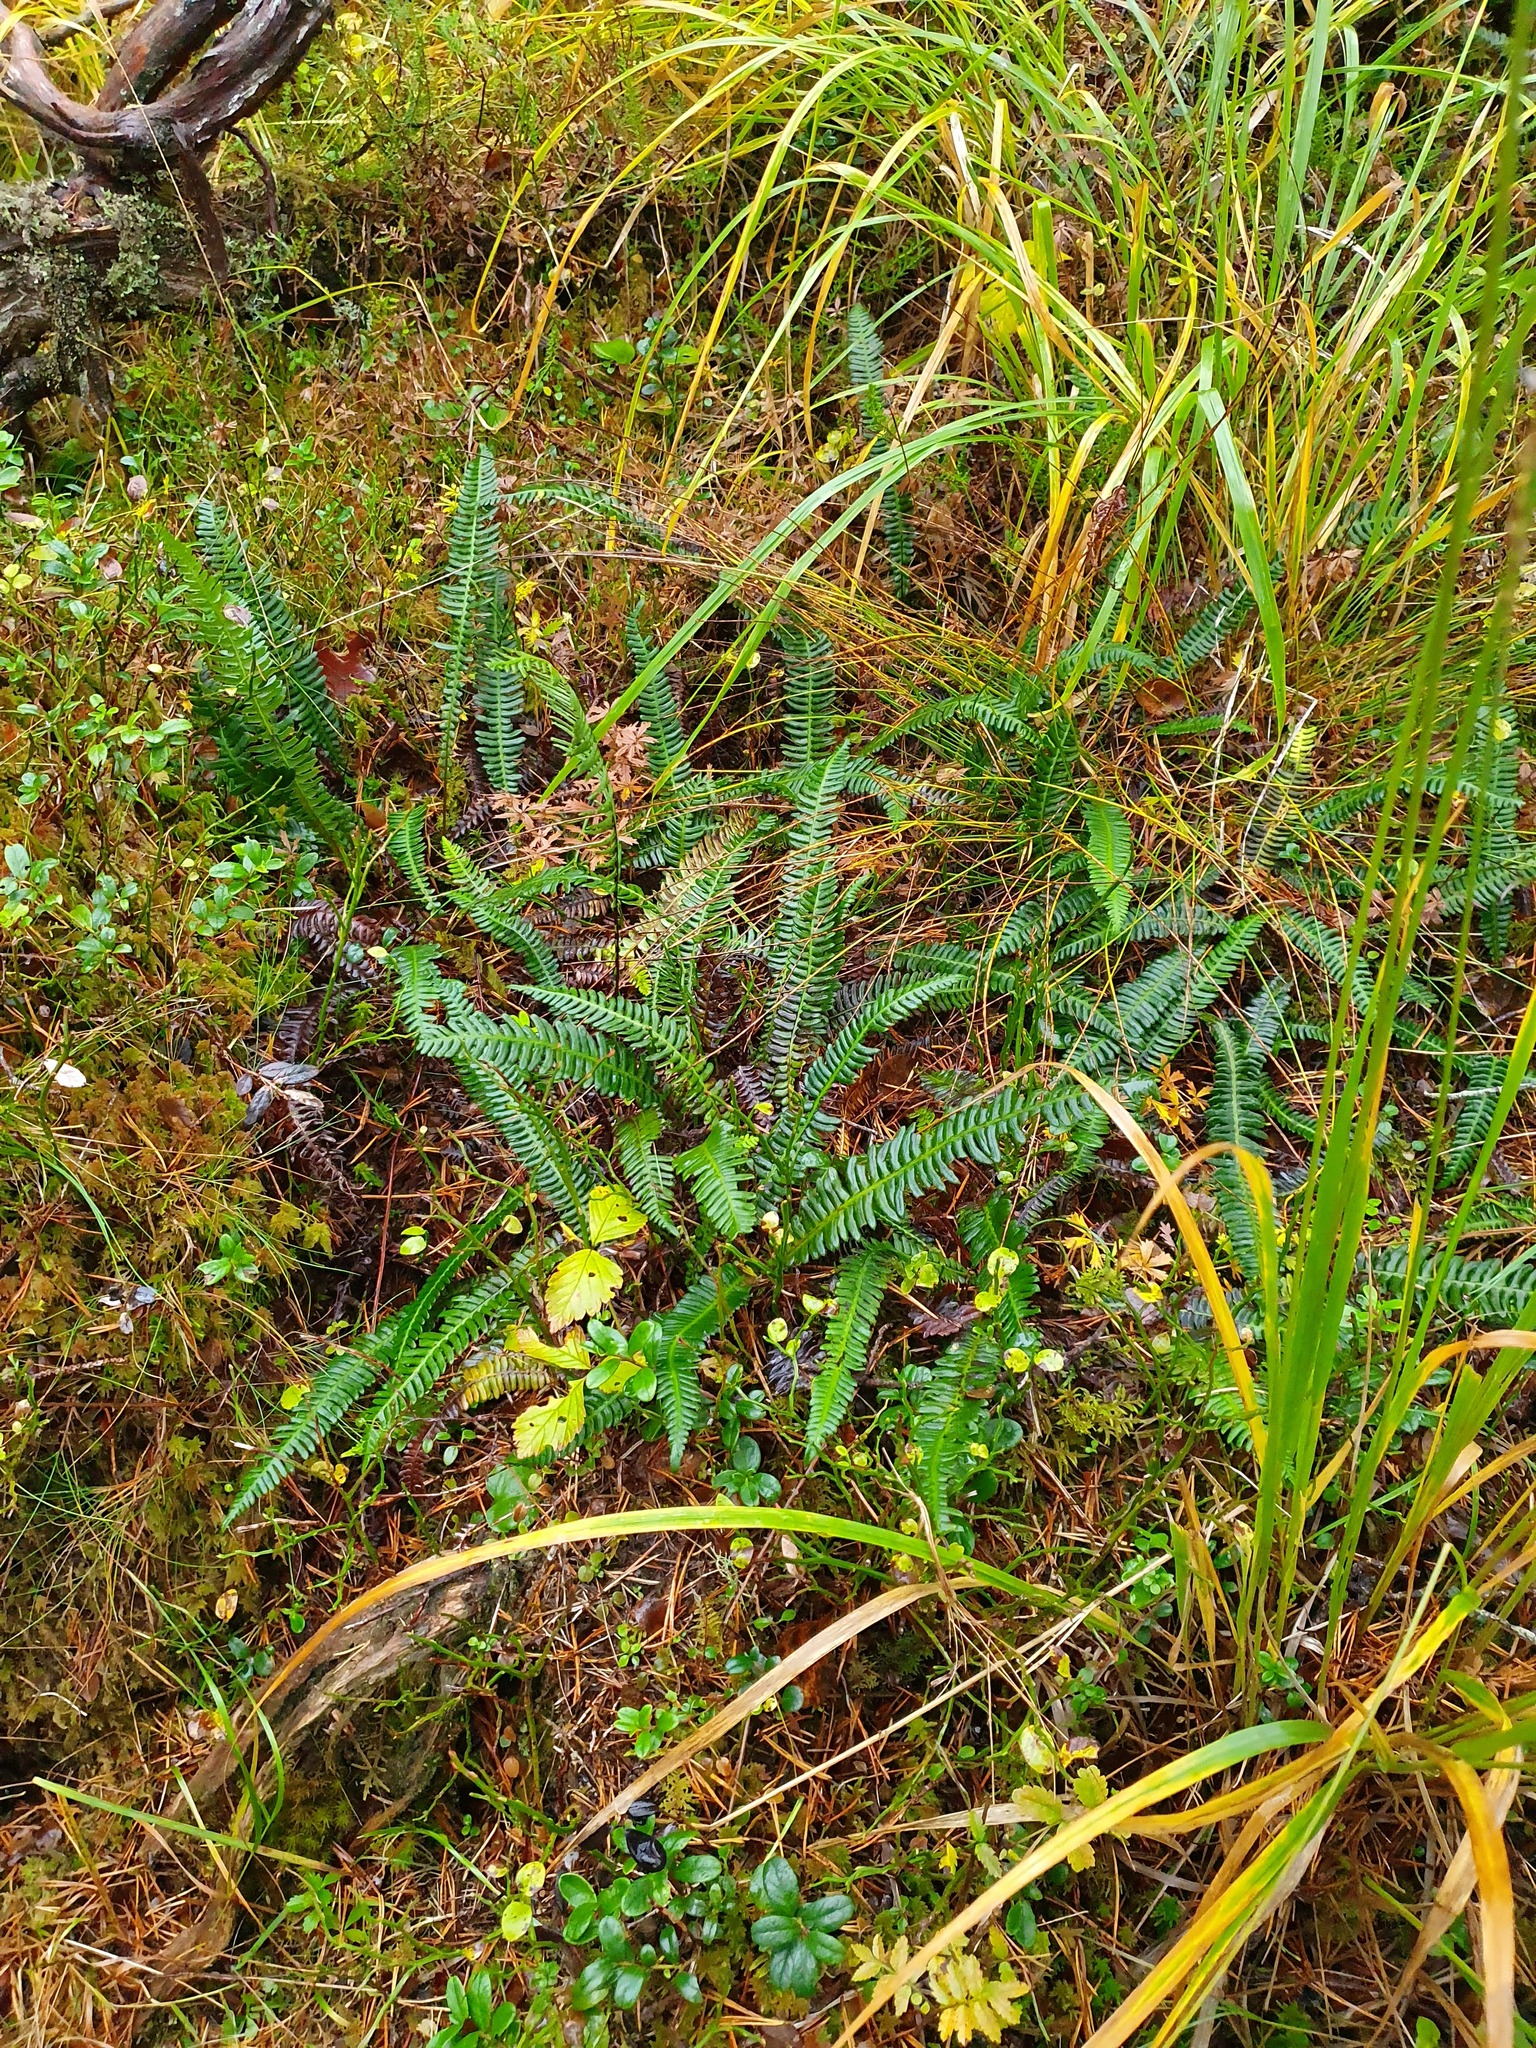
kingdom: Plantae
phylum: Tracheophyta
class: Polypodiopsida
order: Polypodiales
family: Blechnaceae
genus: Struthiopteris
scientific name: Struthiopteris spicant
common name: Deer fern
